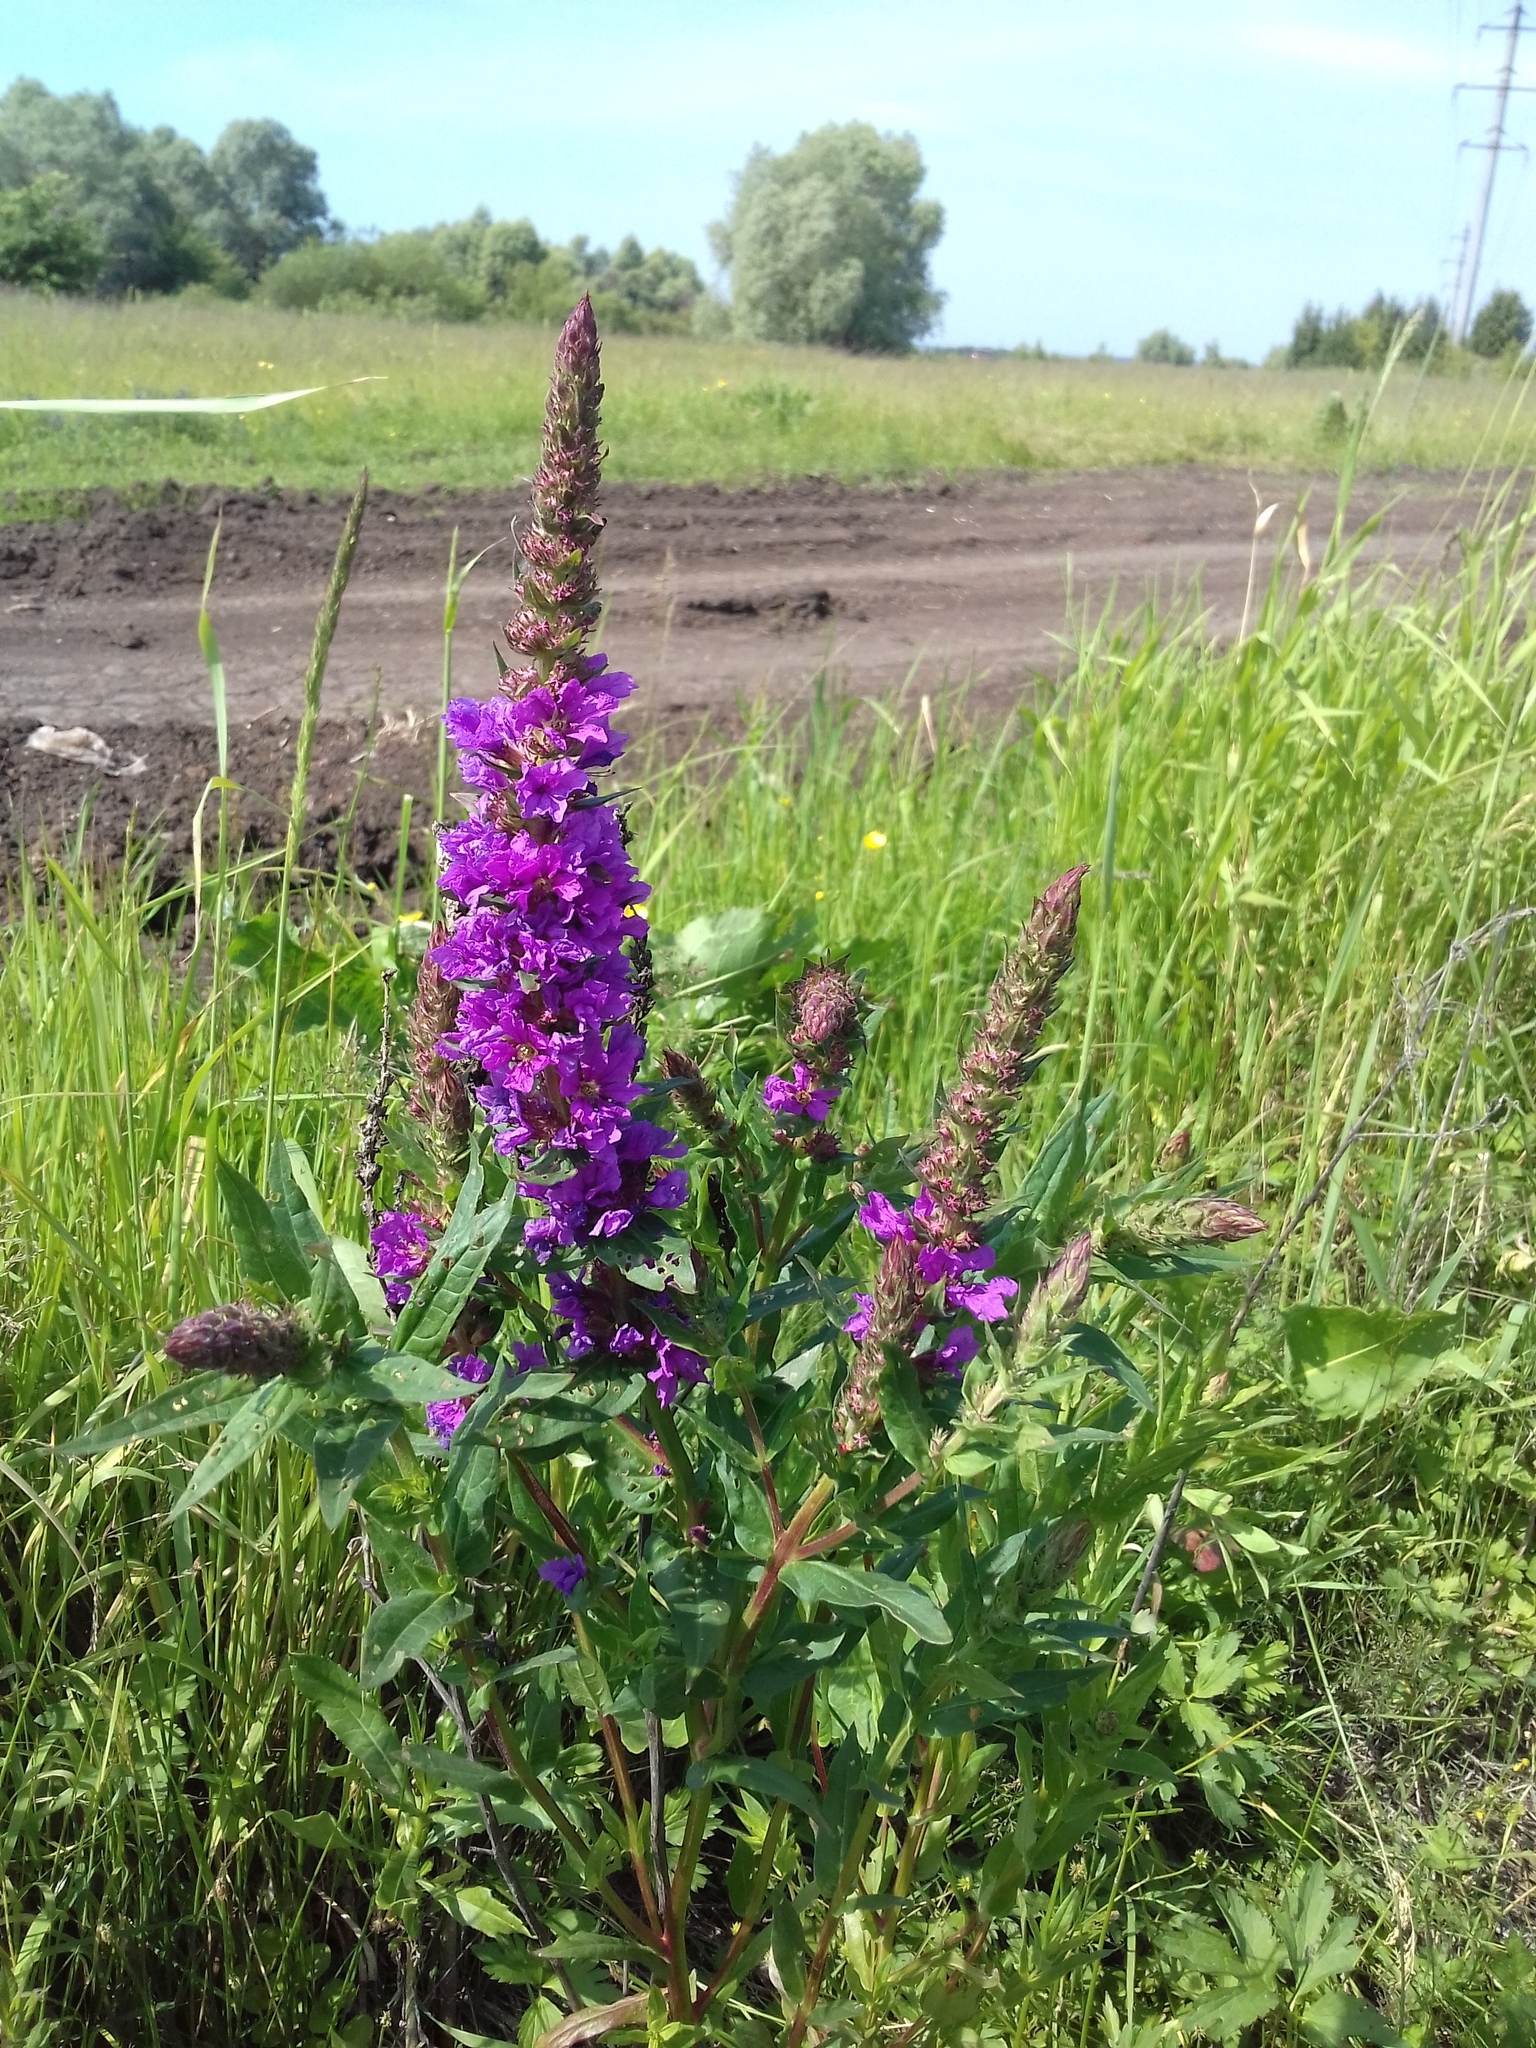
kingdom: Plantae
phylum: Tracheophyta
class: Magnoliopsida
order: Myrtales
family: Lythraceae
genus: Lythrum
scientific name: Lythrum salicaria
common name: Purple loosestrife
